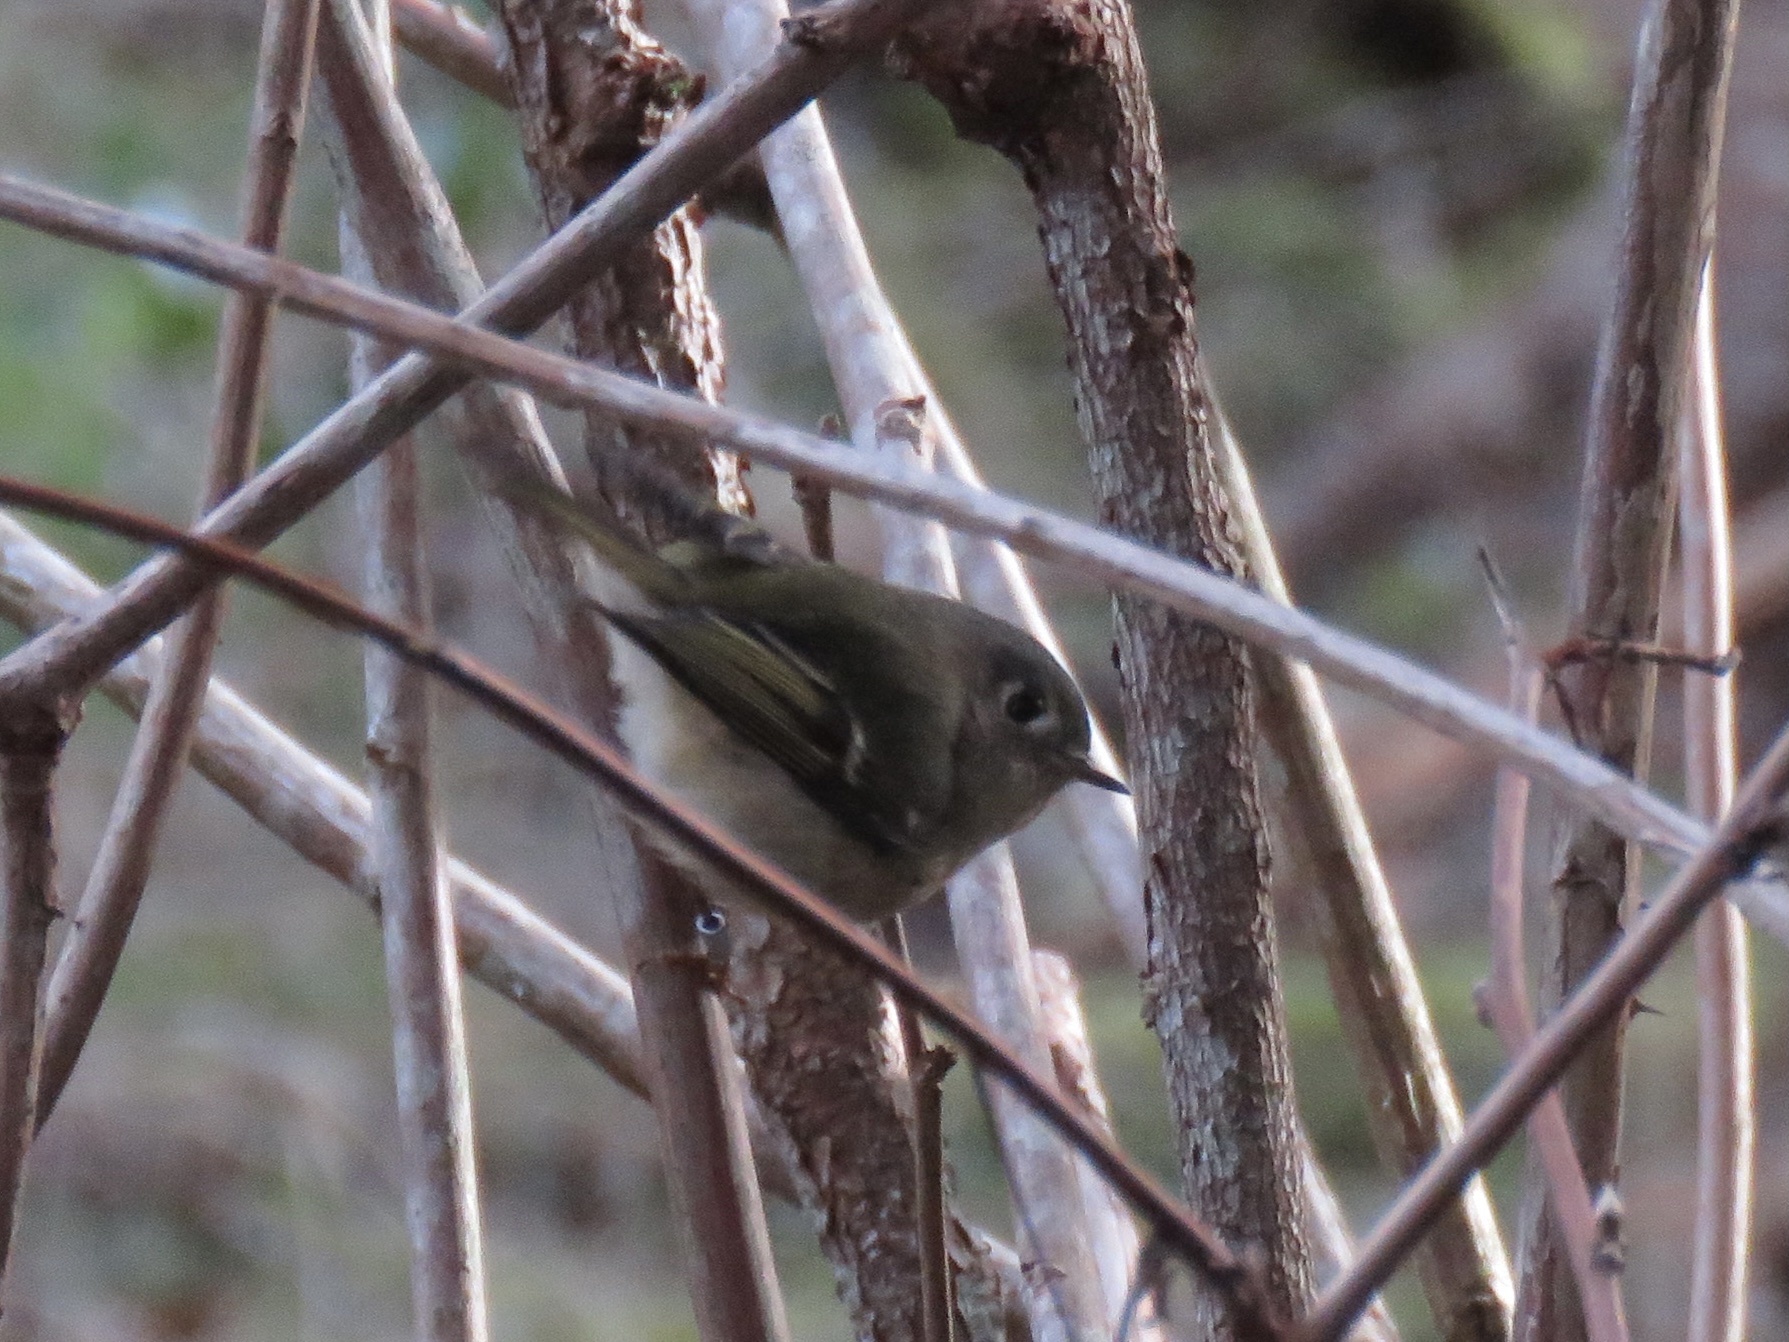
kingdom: Animalia
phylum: Chordata
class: Aves
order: Passeriformes
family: Regulidae
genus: Regulus
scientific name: Regulus calendula
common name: Ruby-crowned kinglet
